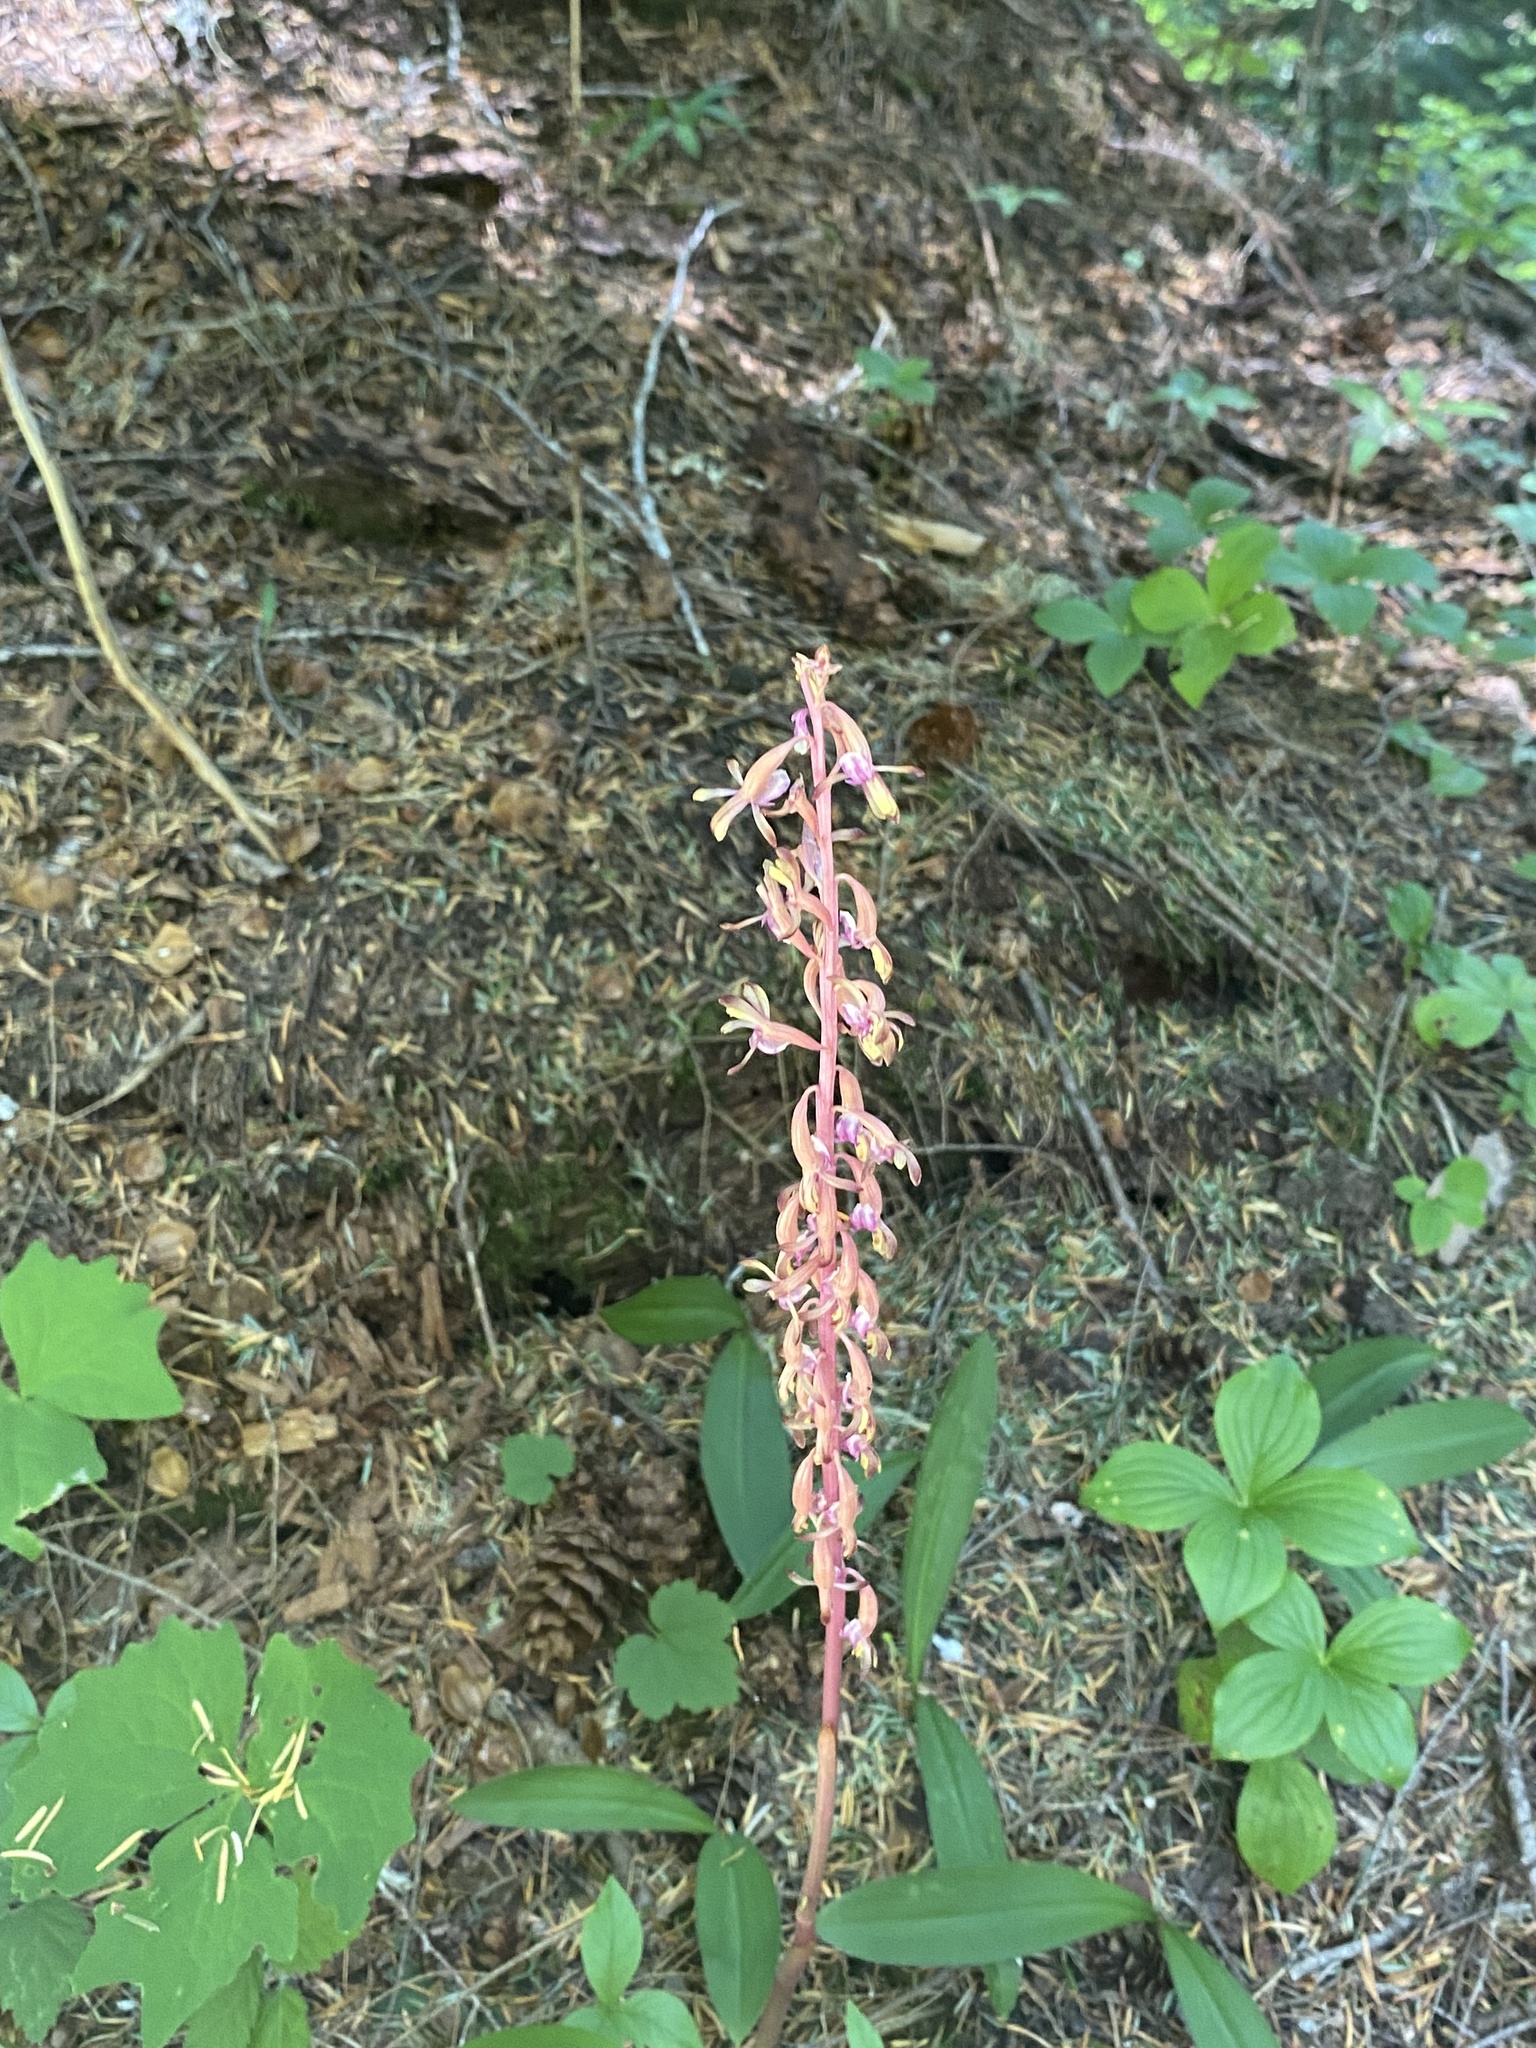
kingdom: Plantae
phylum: Tracheophyta
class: Liliopsida
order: Asparagales
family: Orchidaceae
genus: Corallorhiza
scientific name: Corallorhiza mertensiana
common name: Pacific coralroot
